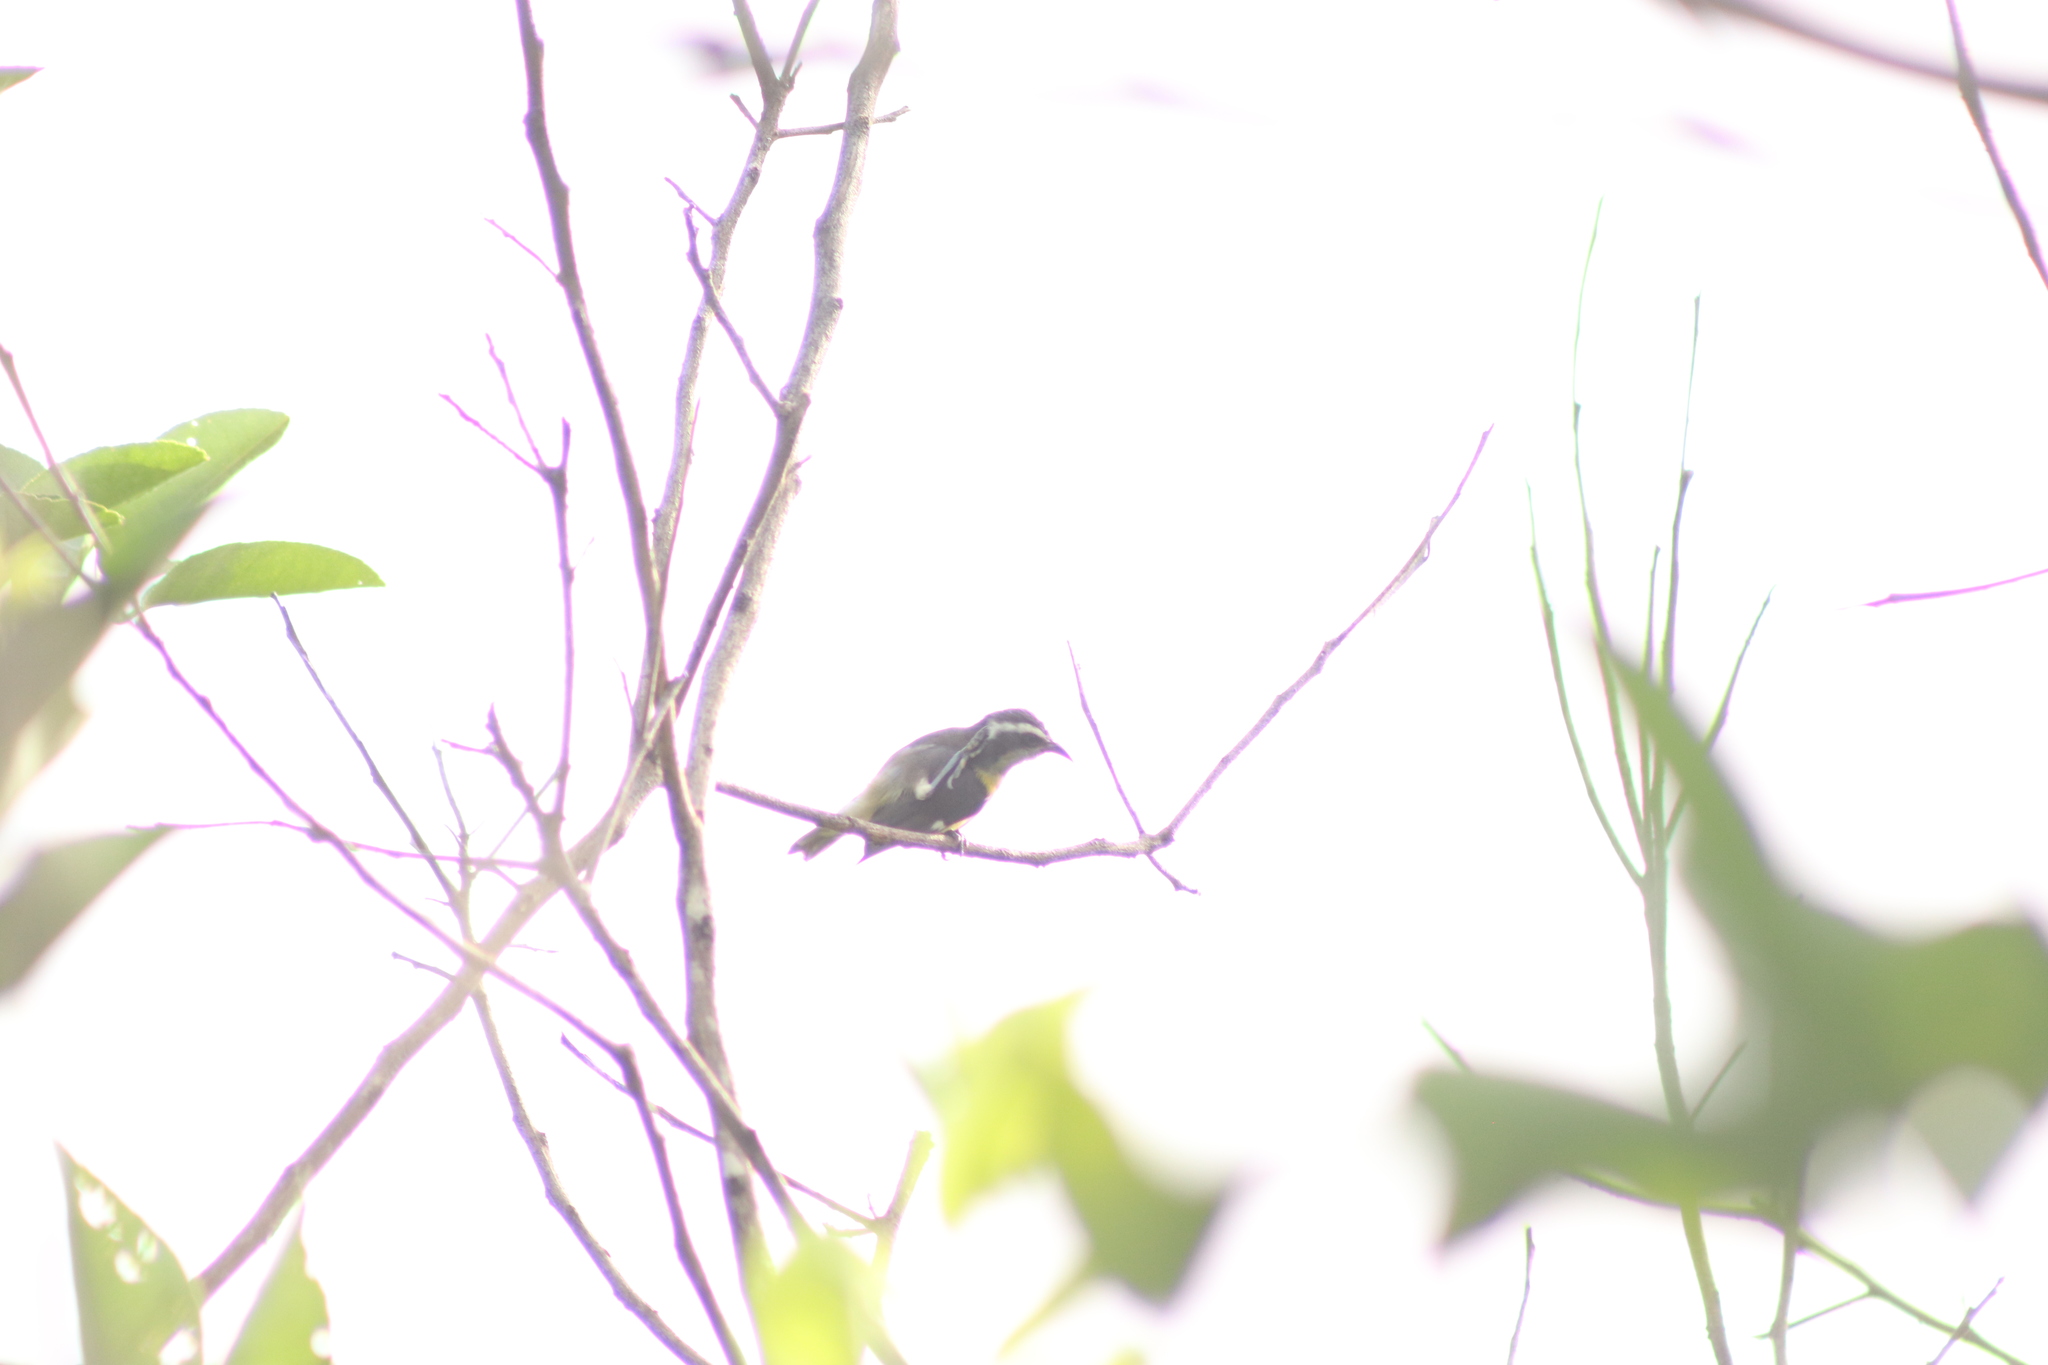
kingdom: Animalia
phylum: Chordata
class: Aves
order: Passeriformes
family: Thraupidae
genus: Coereba
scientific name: Coereba flaveola
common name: Bananaquit
